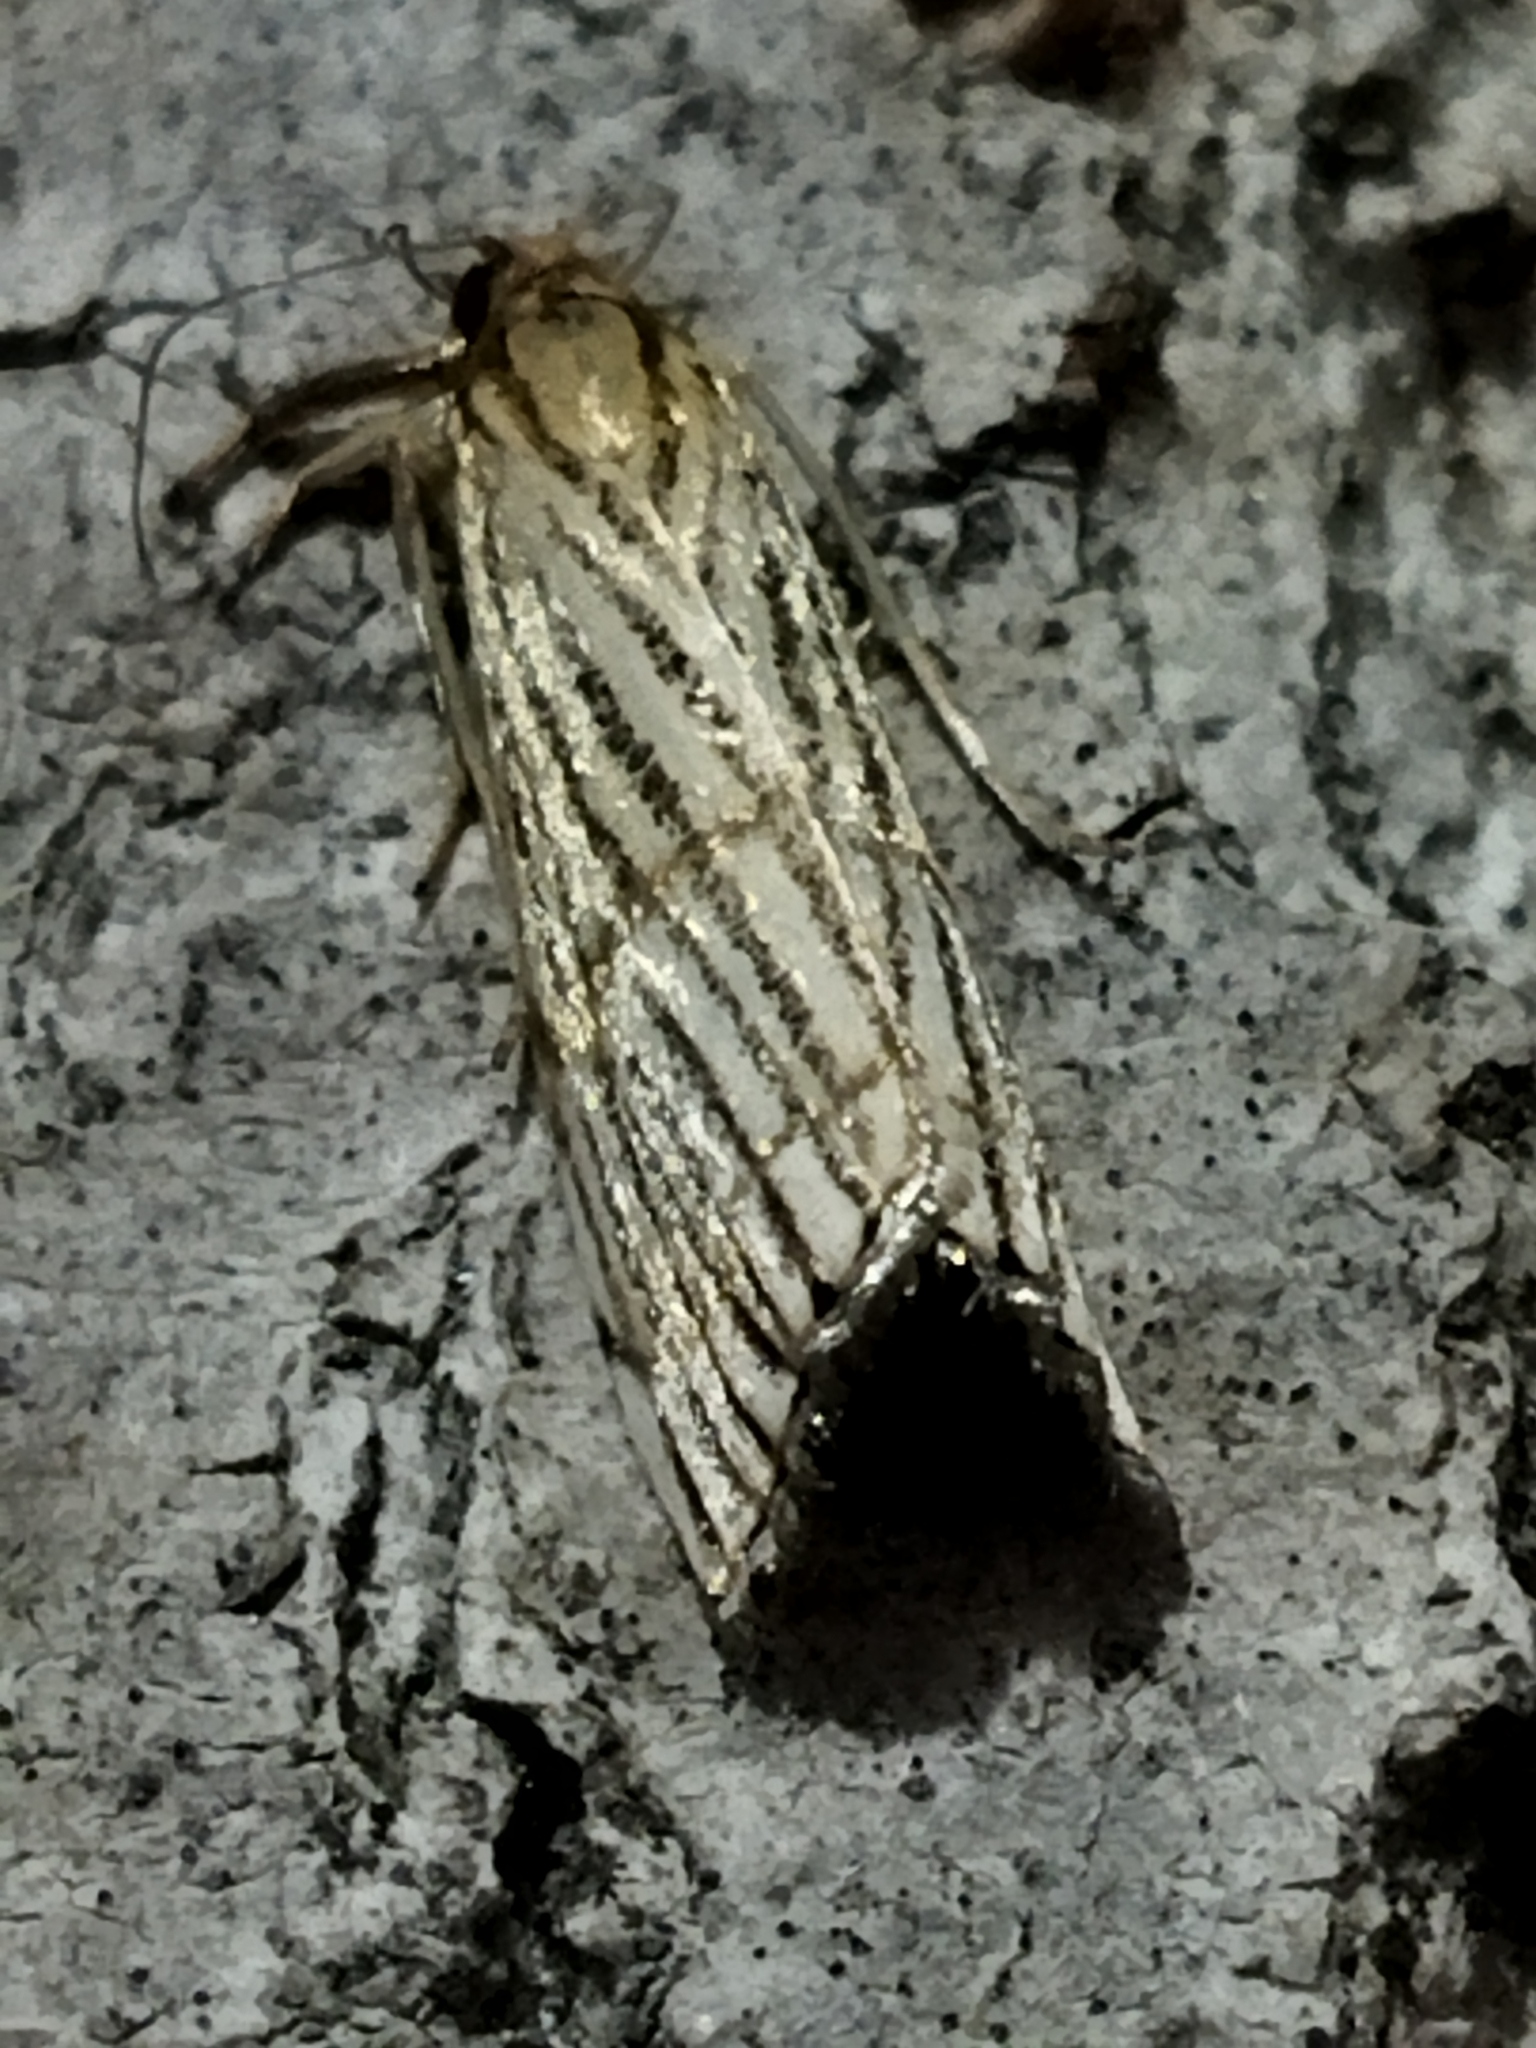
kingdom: Animalia
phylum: Arthropoda
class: Insecta
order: Lepidoptera
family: Crambidae
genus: Chrysocrambus
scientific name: Chrysocrambus linetella
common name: Orange-bar grass-veneer
